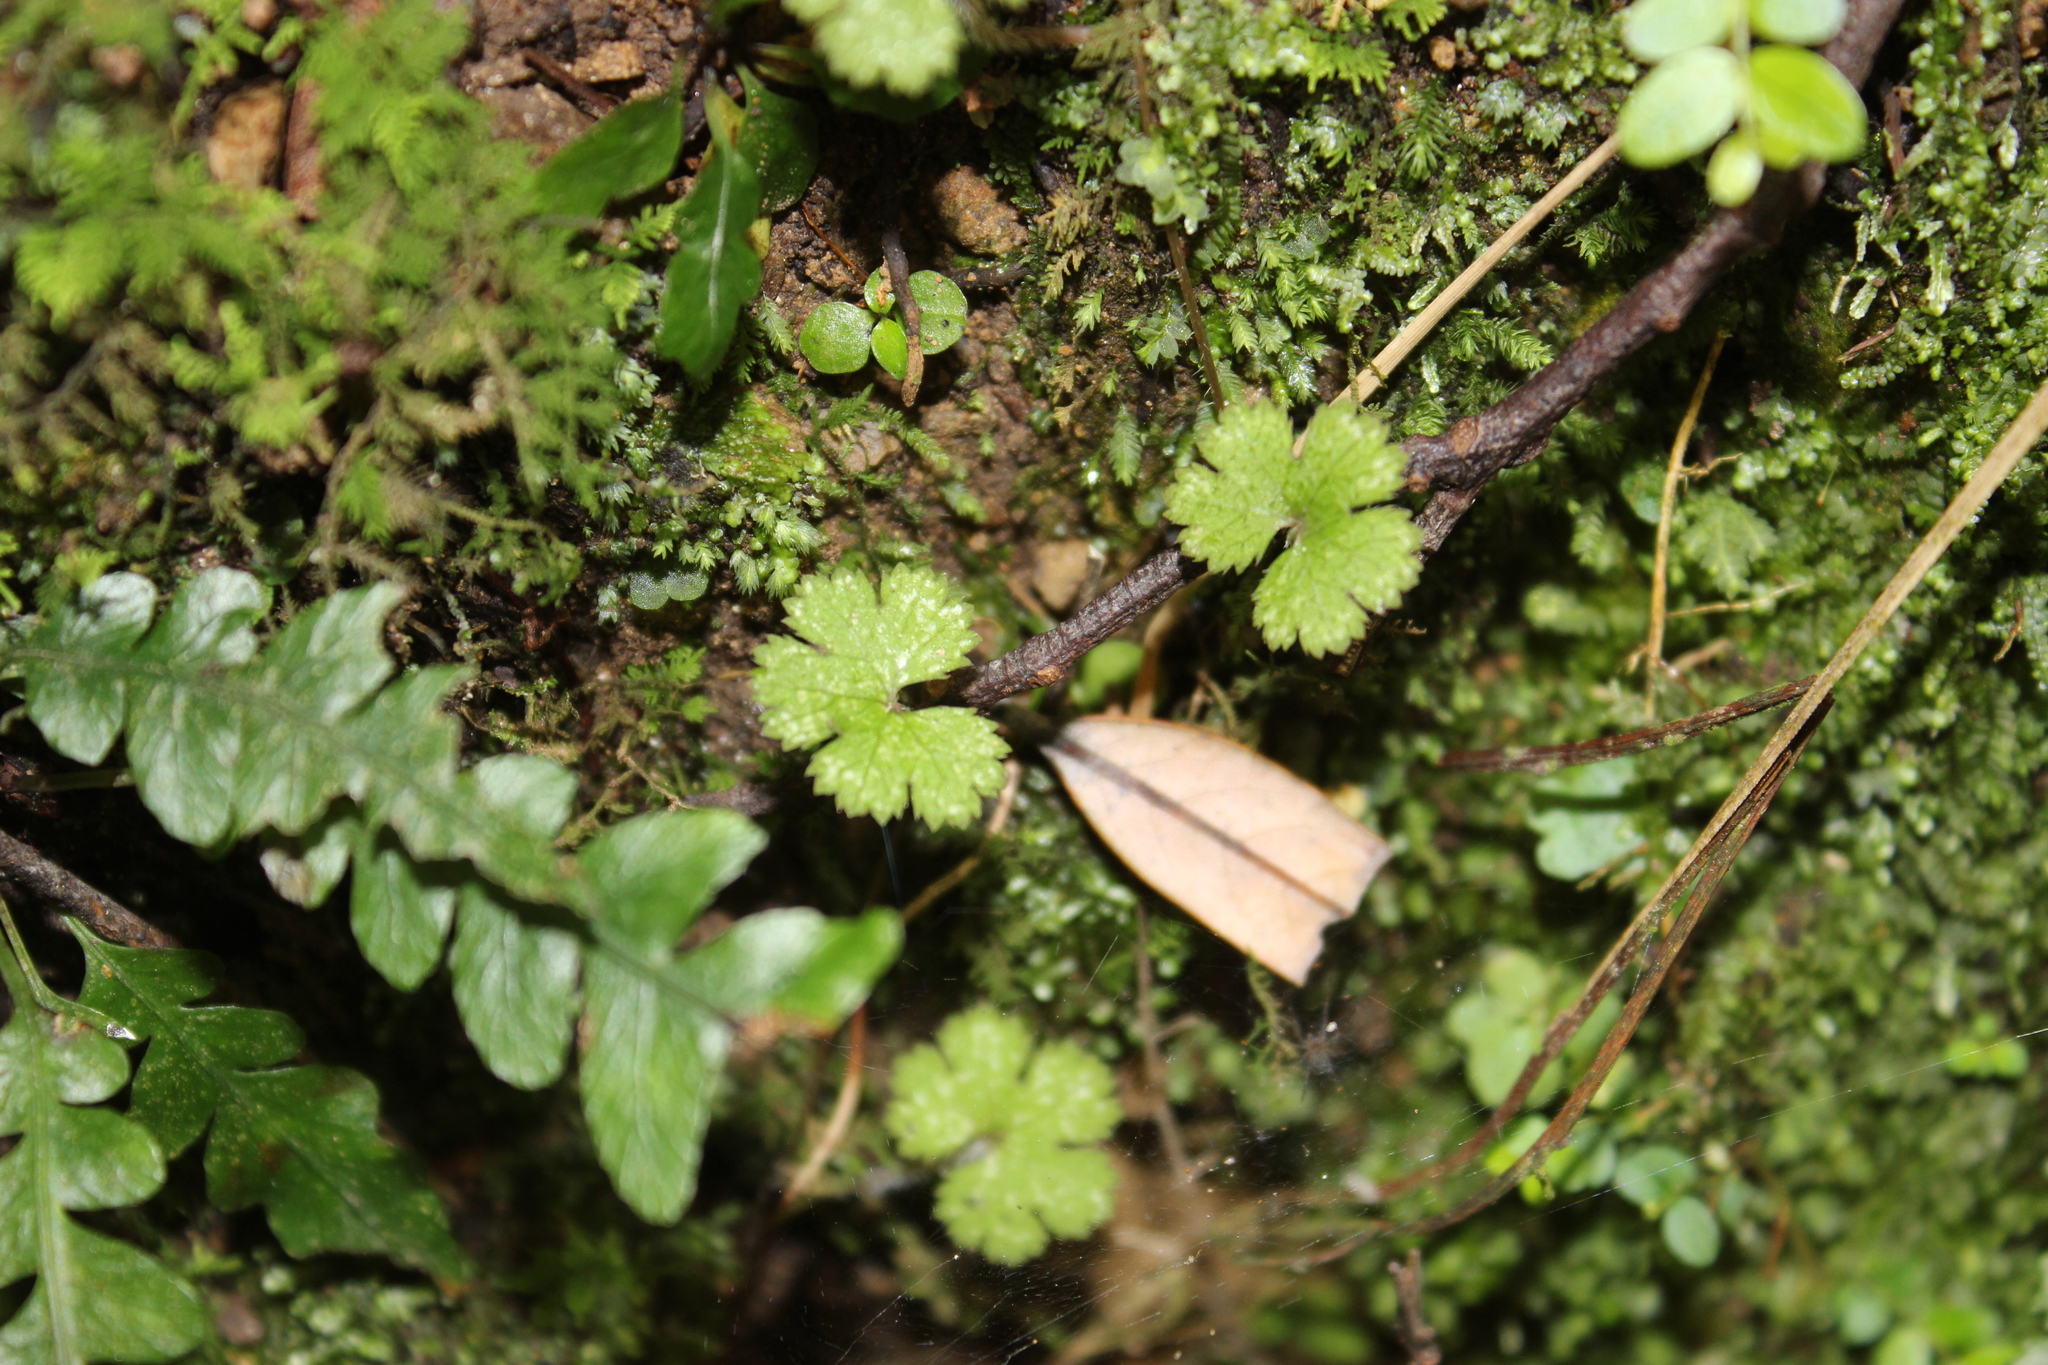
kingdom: Plantae
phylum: Tracheophyta
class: Magnoliopsida
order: Apiales
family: Araliaceae
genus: Hydrocotyle
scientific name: Hydrocotyle elongata
